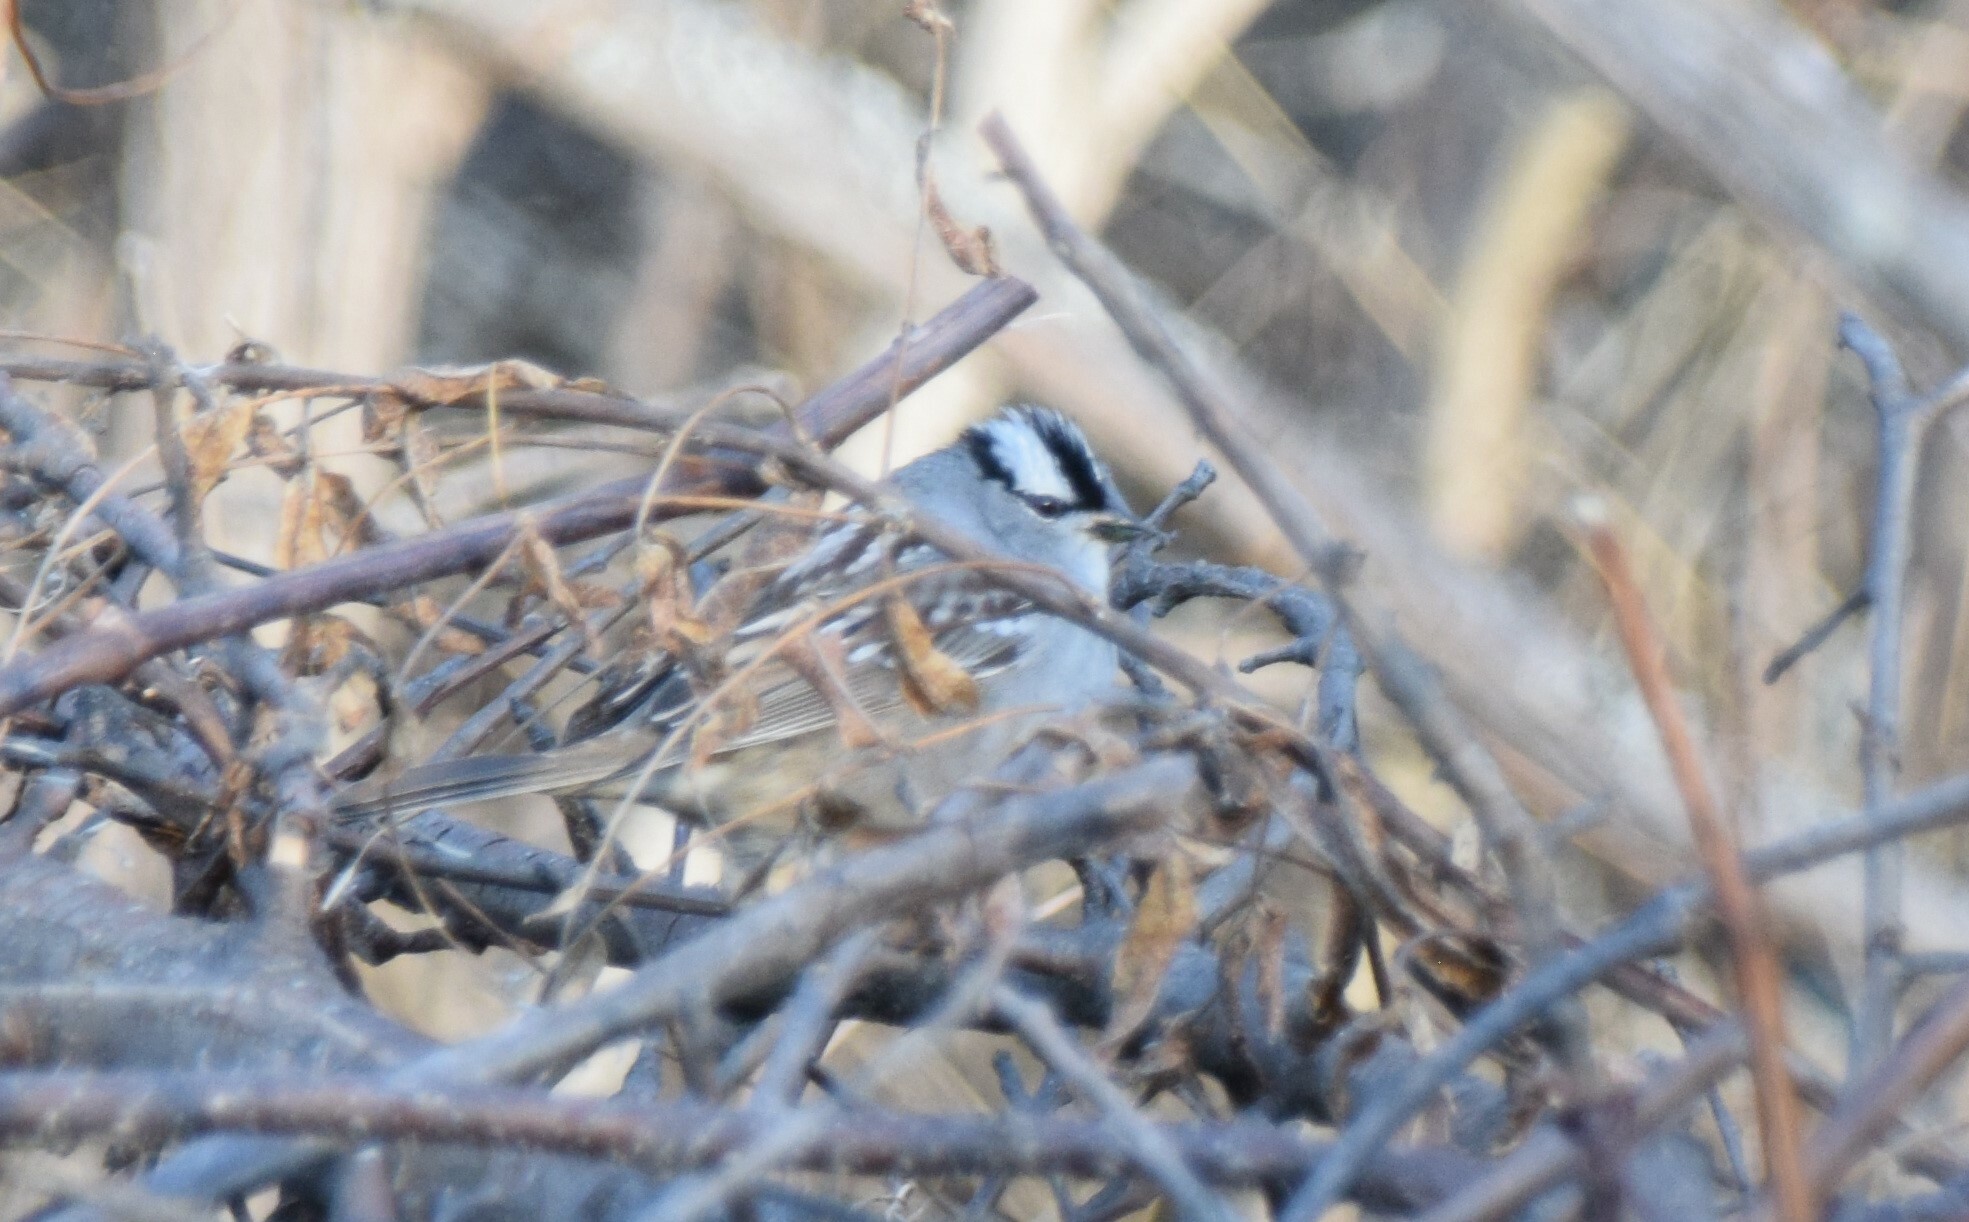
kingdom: Animalia
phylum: Chordata
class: Aves
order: Passeriformes
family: Passerellidae
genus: Zonotrichia
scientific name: Zonotrichia leucophrys
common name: White-crowned sparrow
